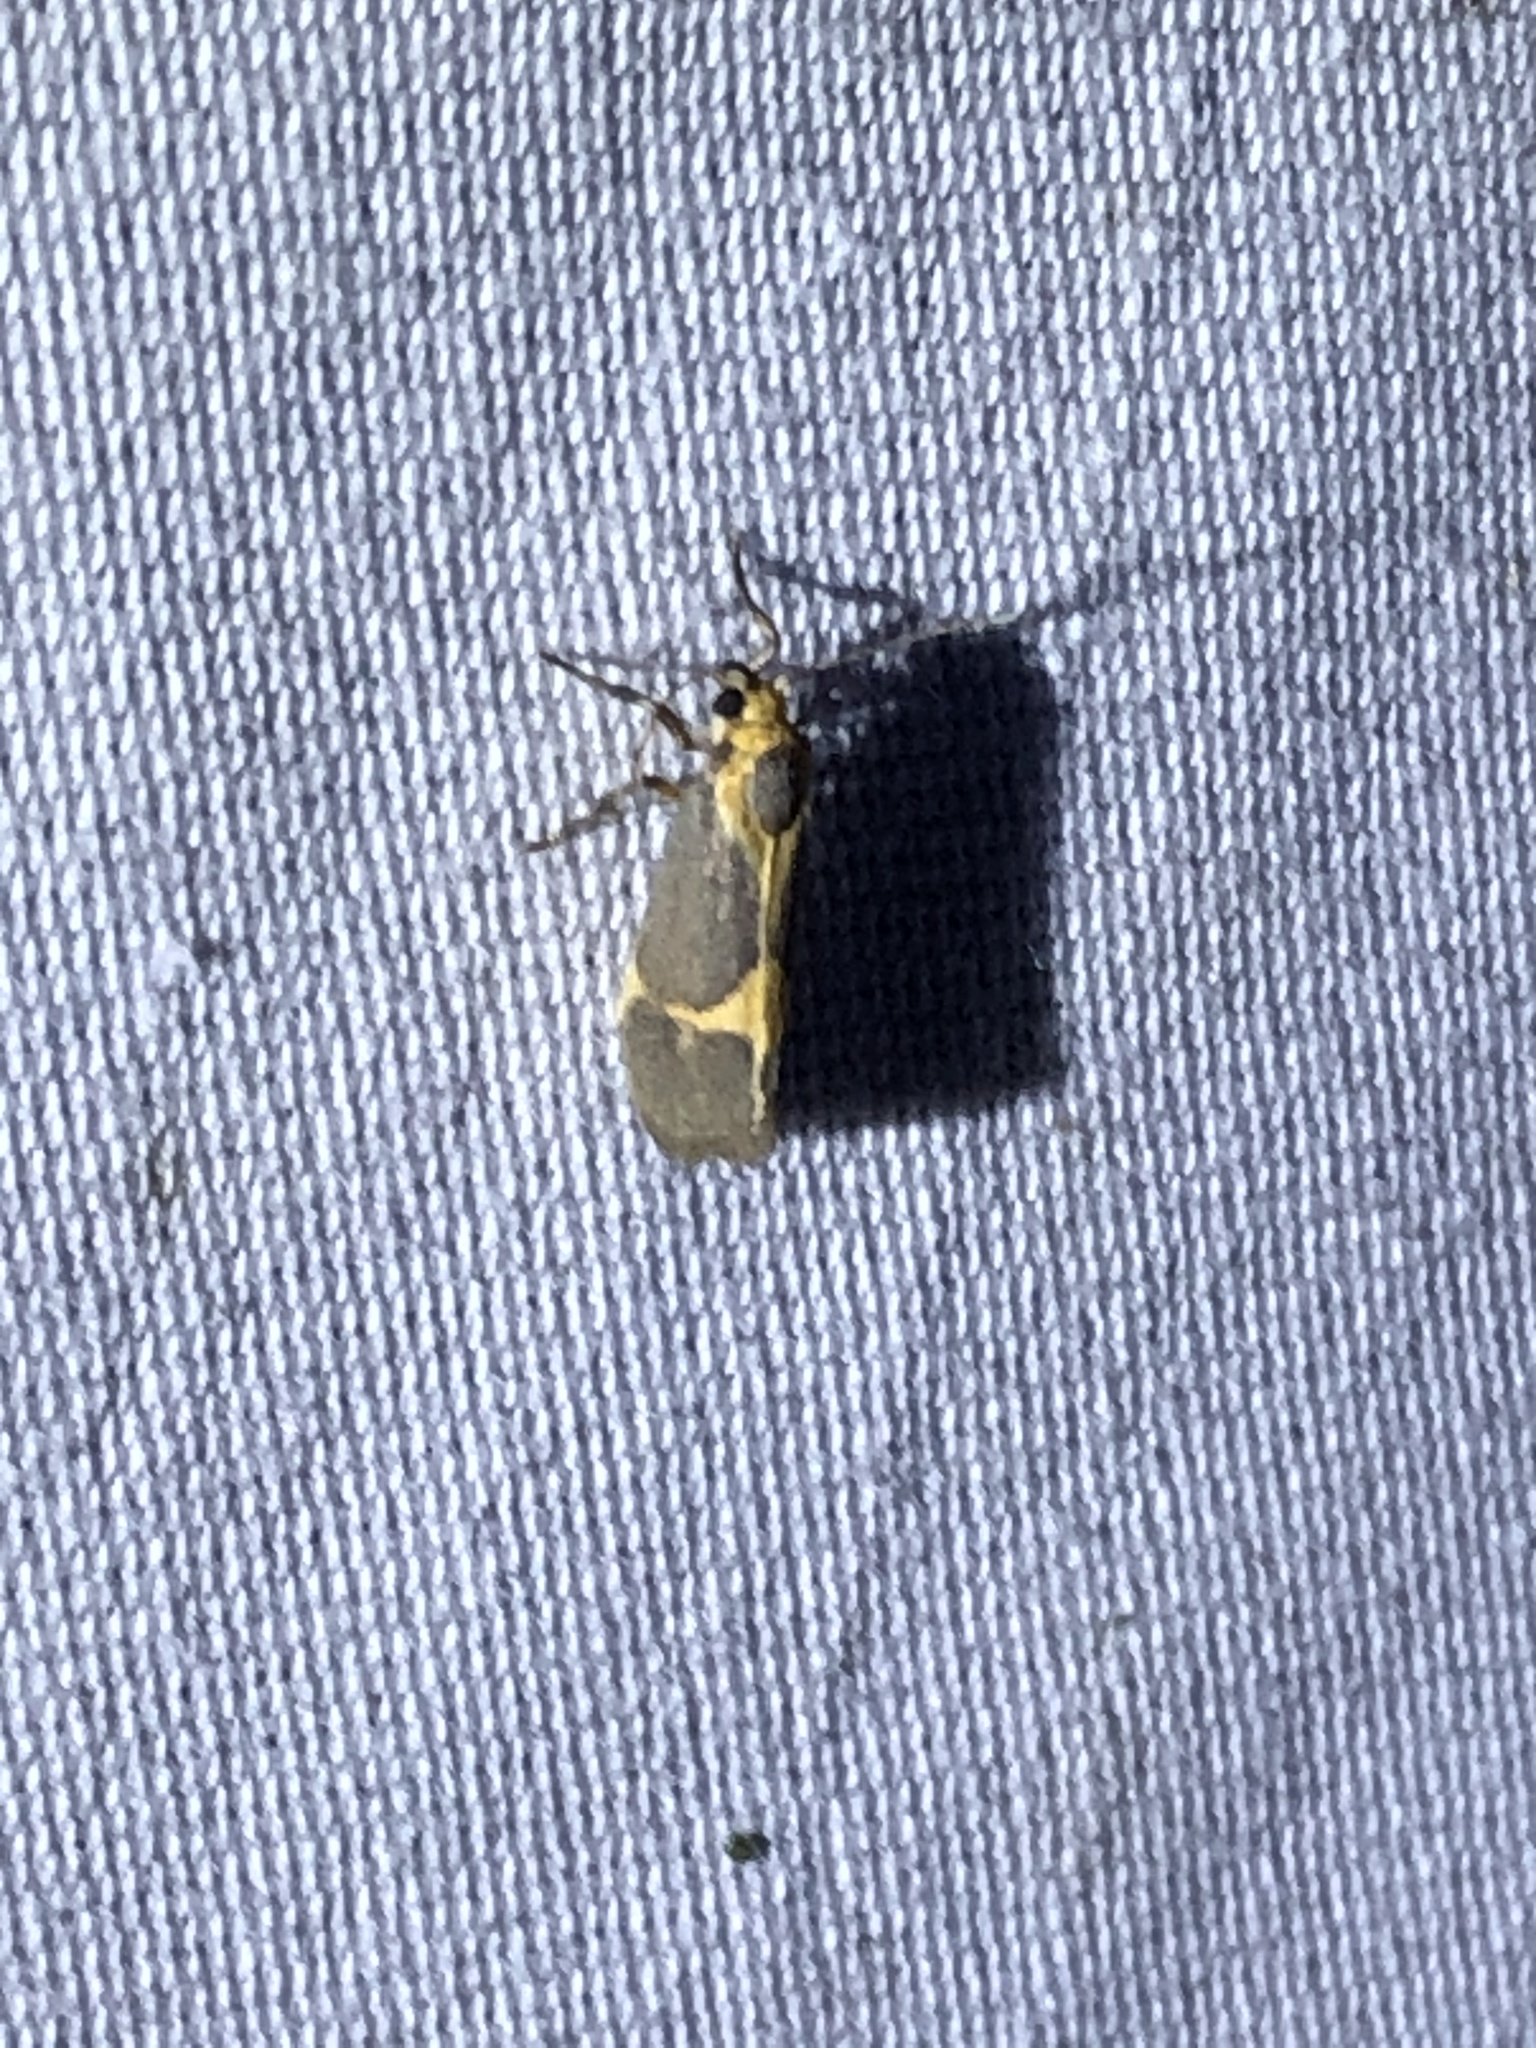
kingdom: Animalia
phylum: Arthropoda
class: Insecta
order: Lepidoptera
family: Erebidae
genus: Cisthene
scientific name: Cisthene tenuifascia
